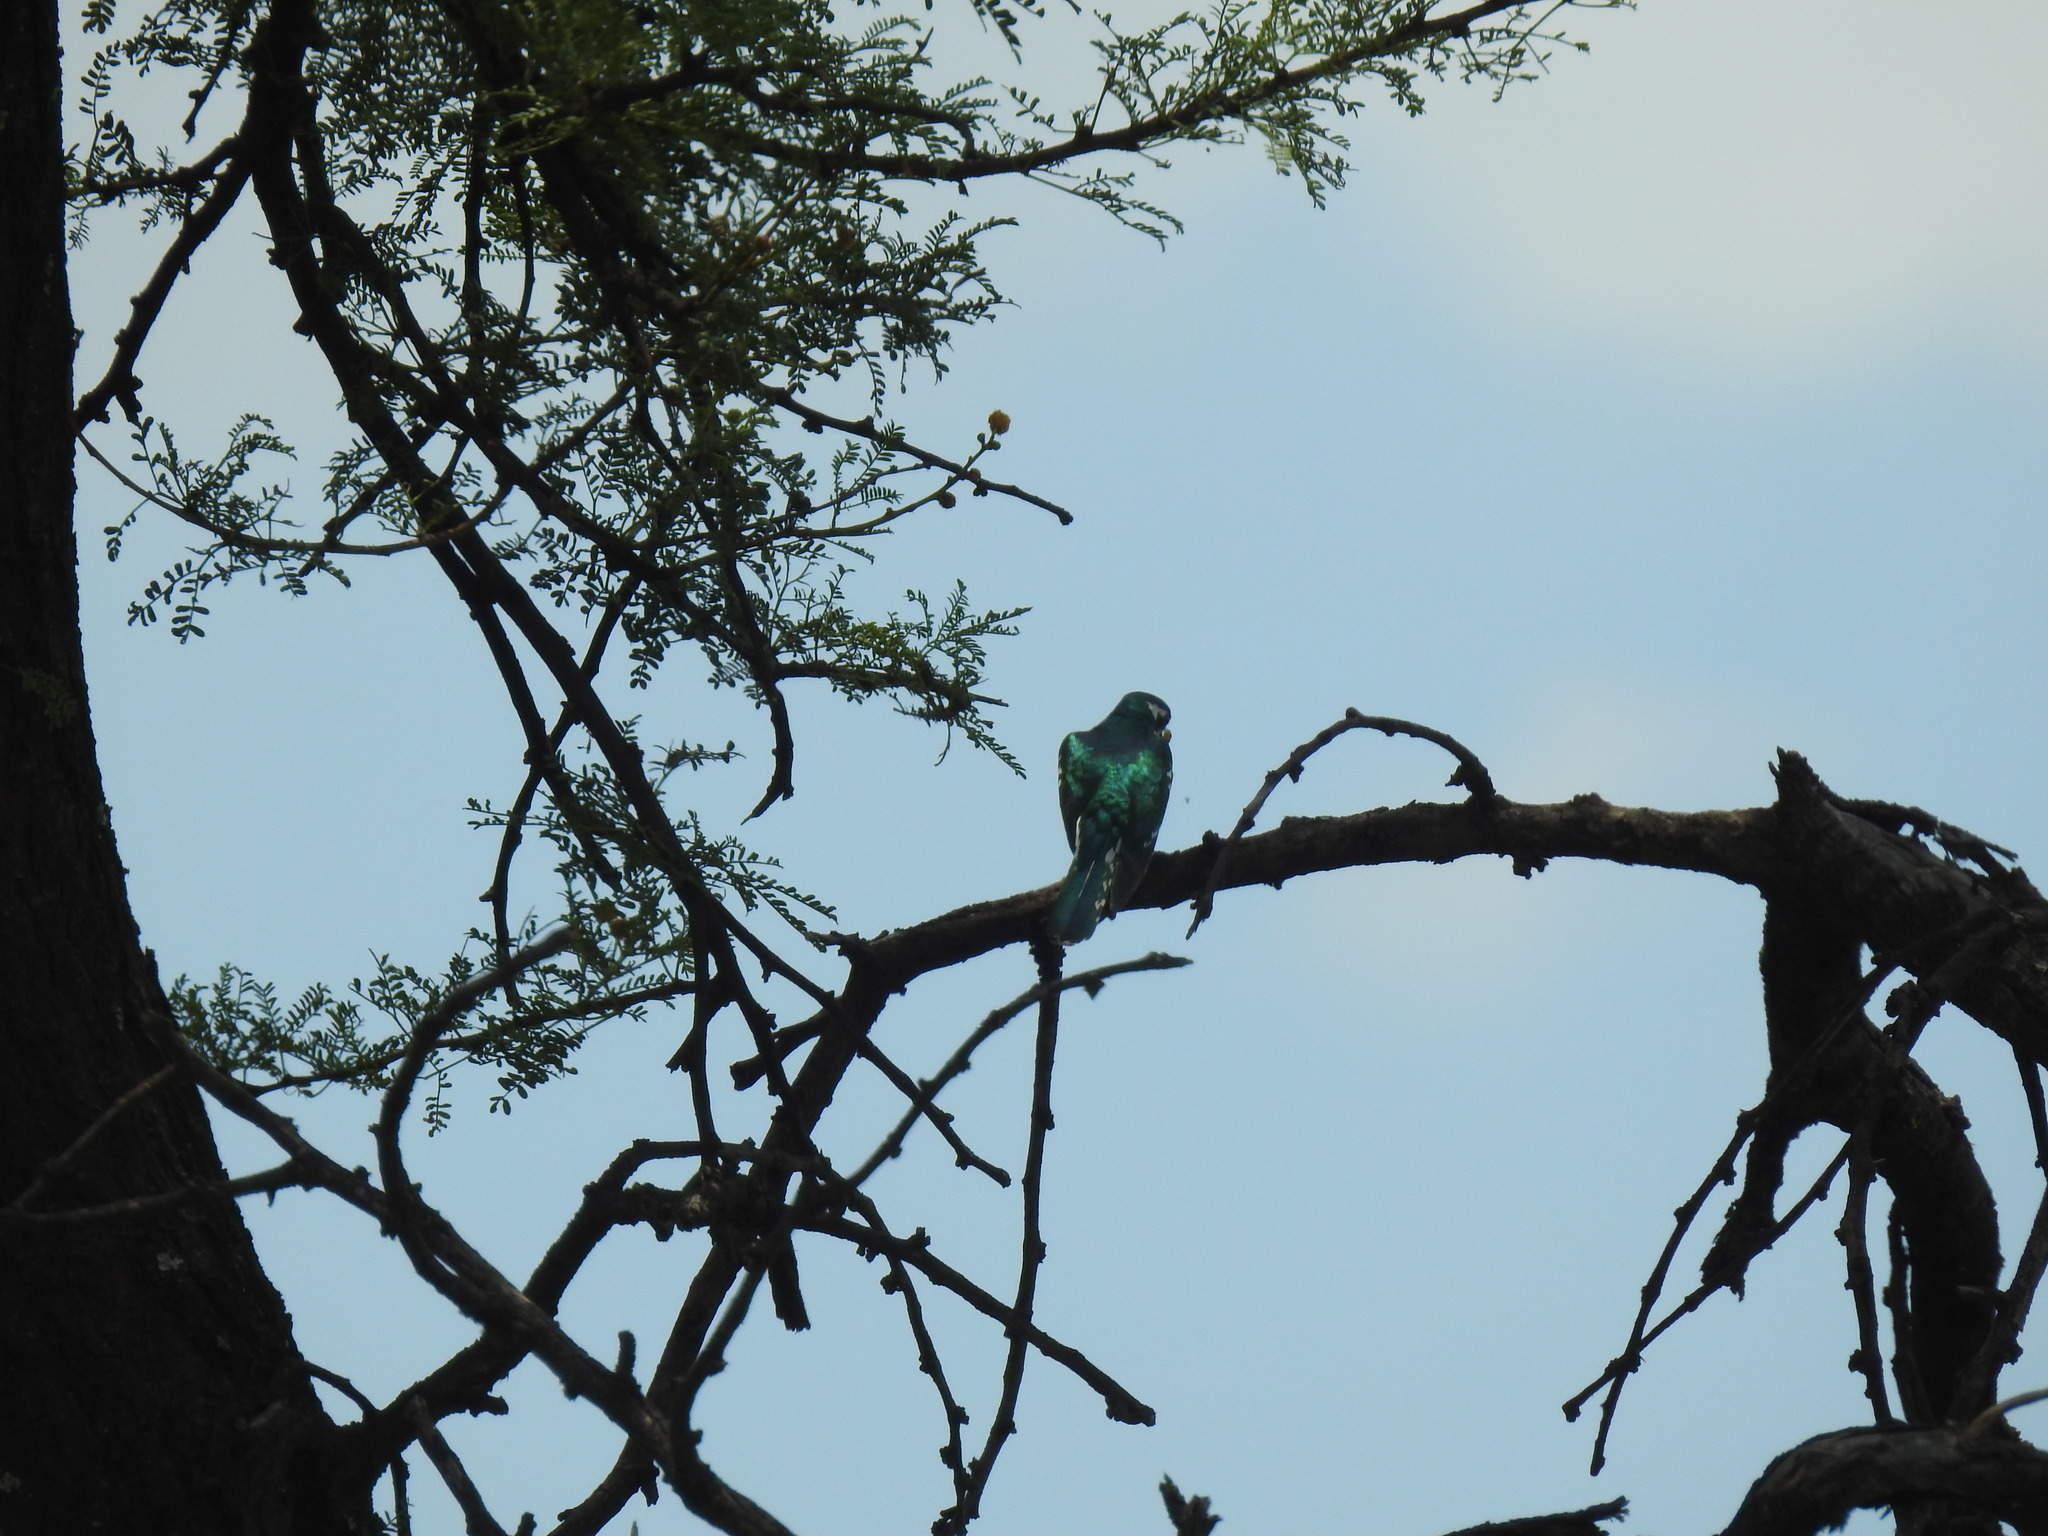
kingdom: Animalia
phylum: Chordata
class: Aves
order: Cuculiformes
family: Cuculidae
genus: Chrysococcyx
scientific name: Chrysococcyx caprius
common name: Diederik cuckoo
